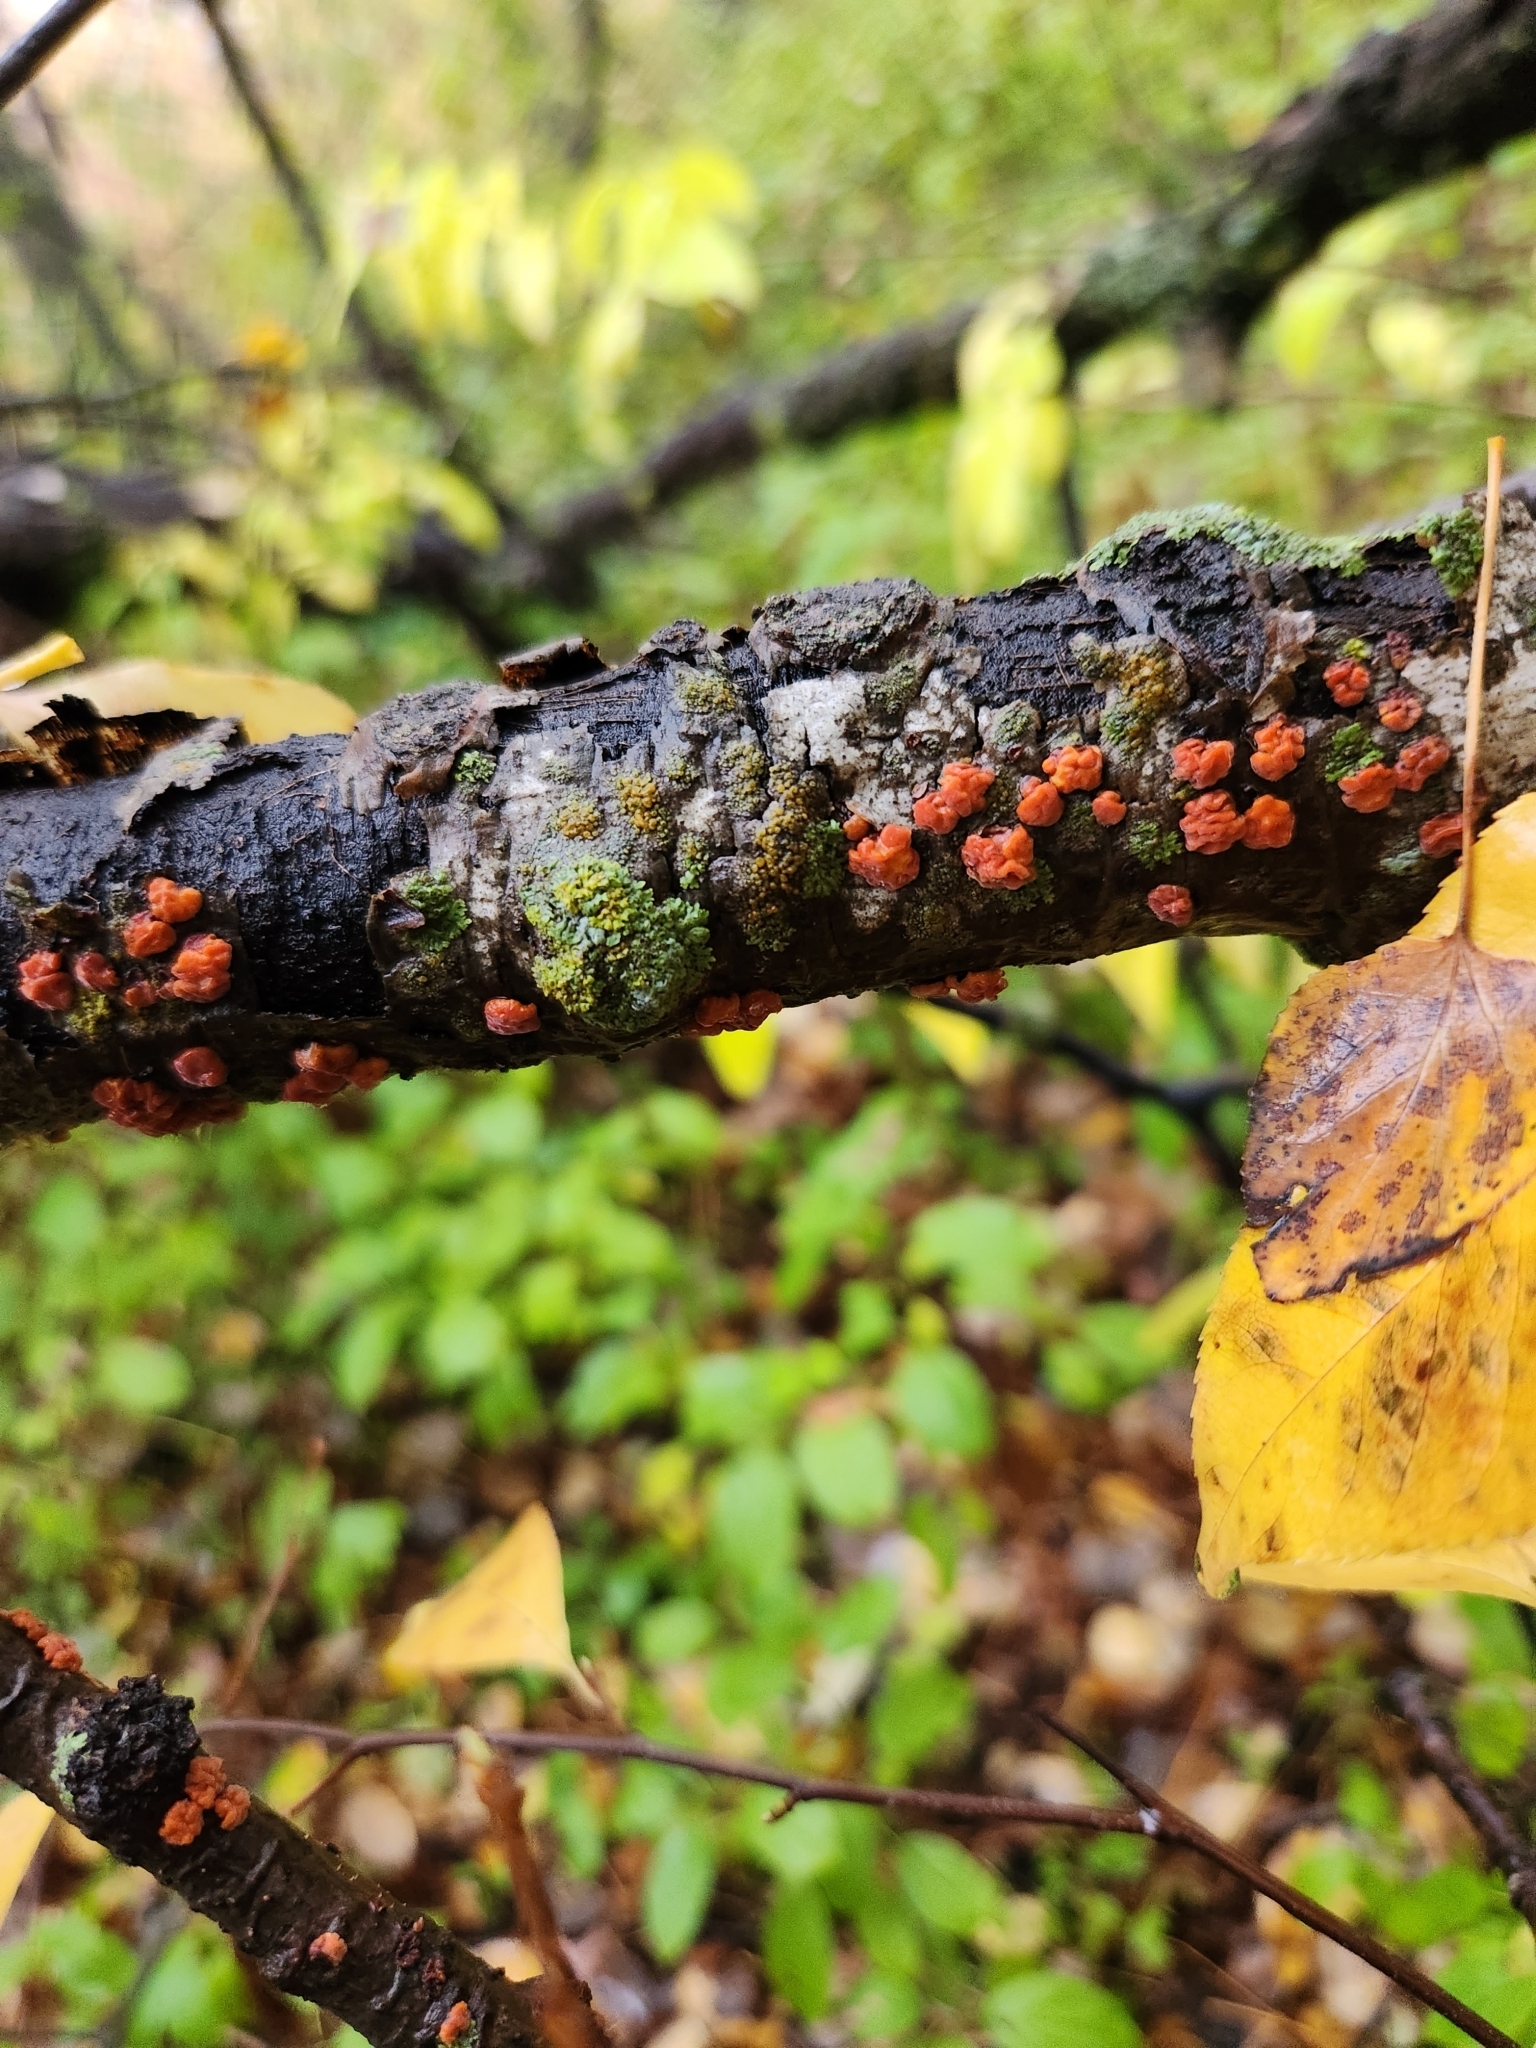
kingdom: Fungi
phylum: Basidiomycota
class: Agaricomycetes
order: Russulales
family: Peniophoraceae
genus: Peniophora
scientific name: Peniophora rufa
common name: Red tree brain fungus
